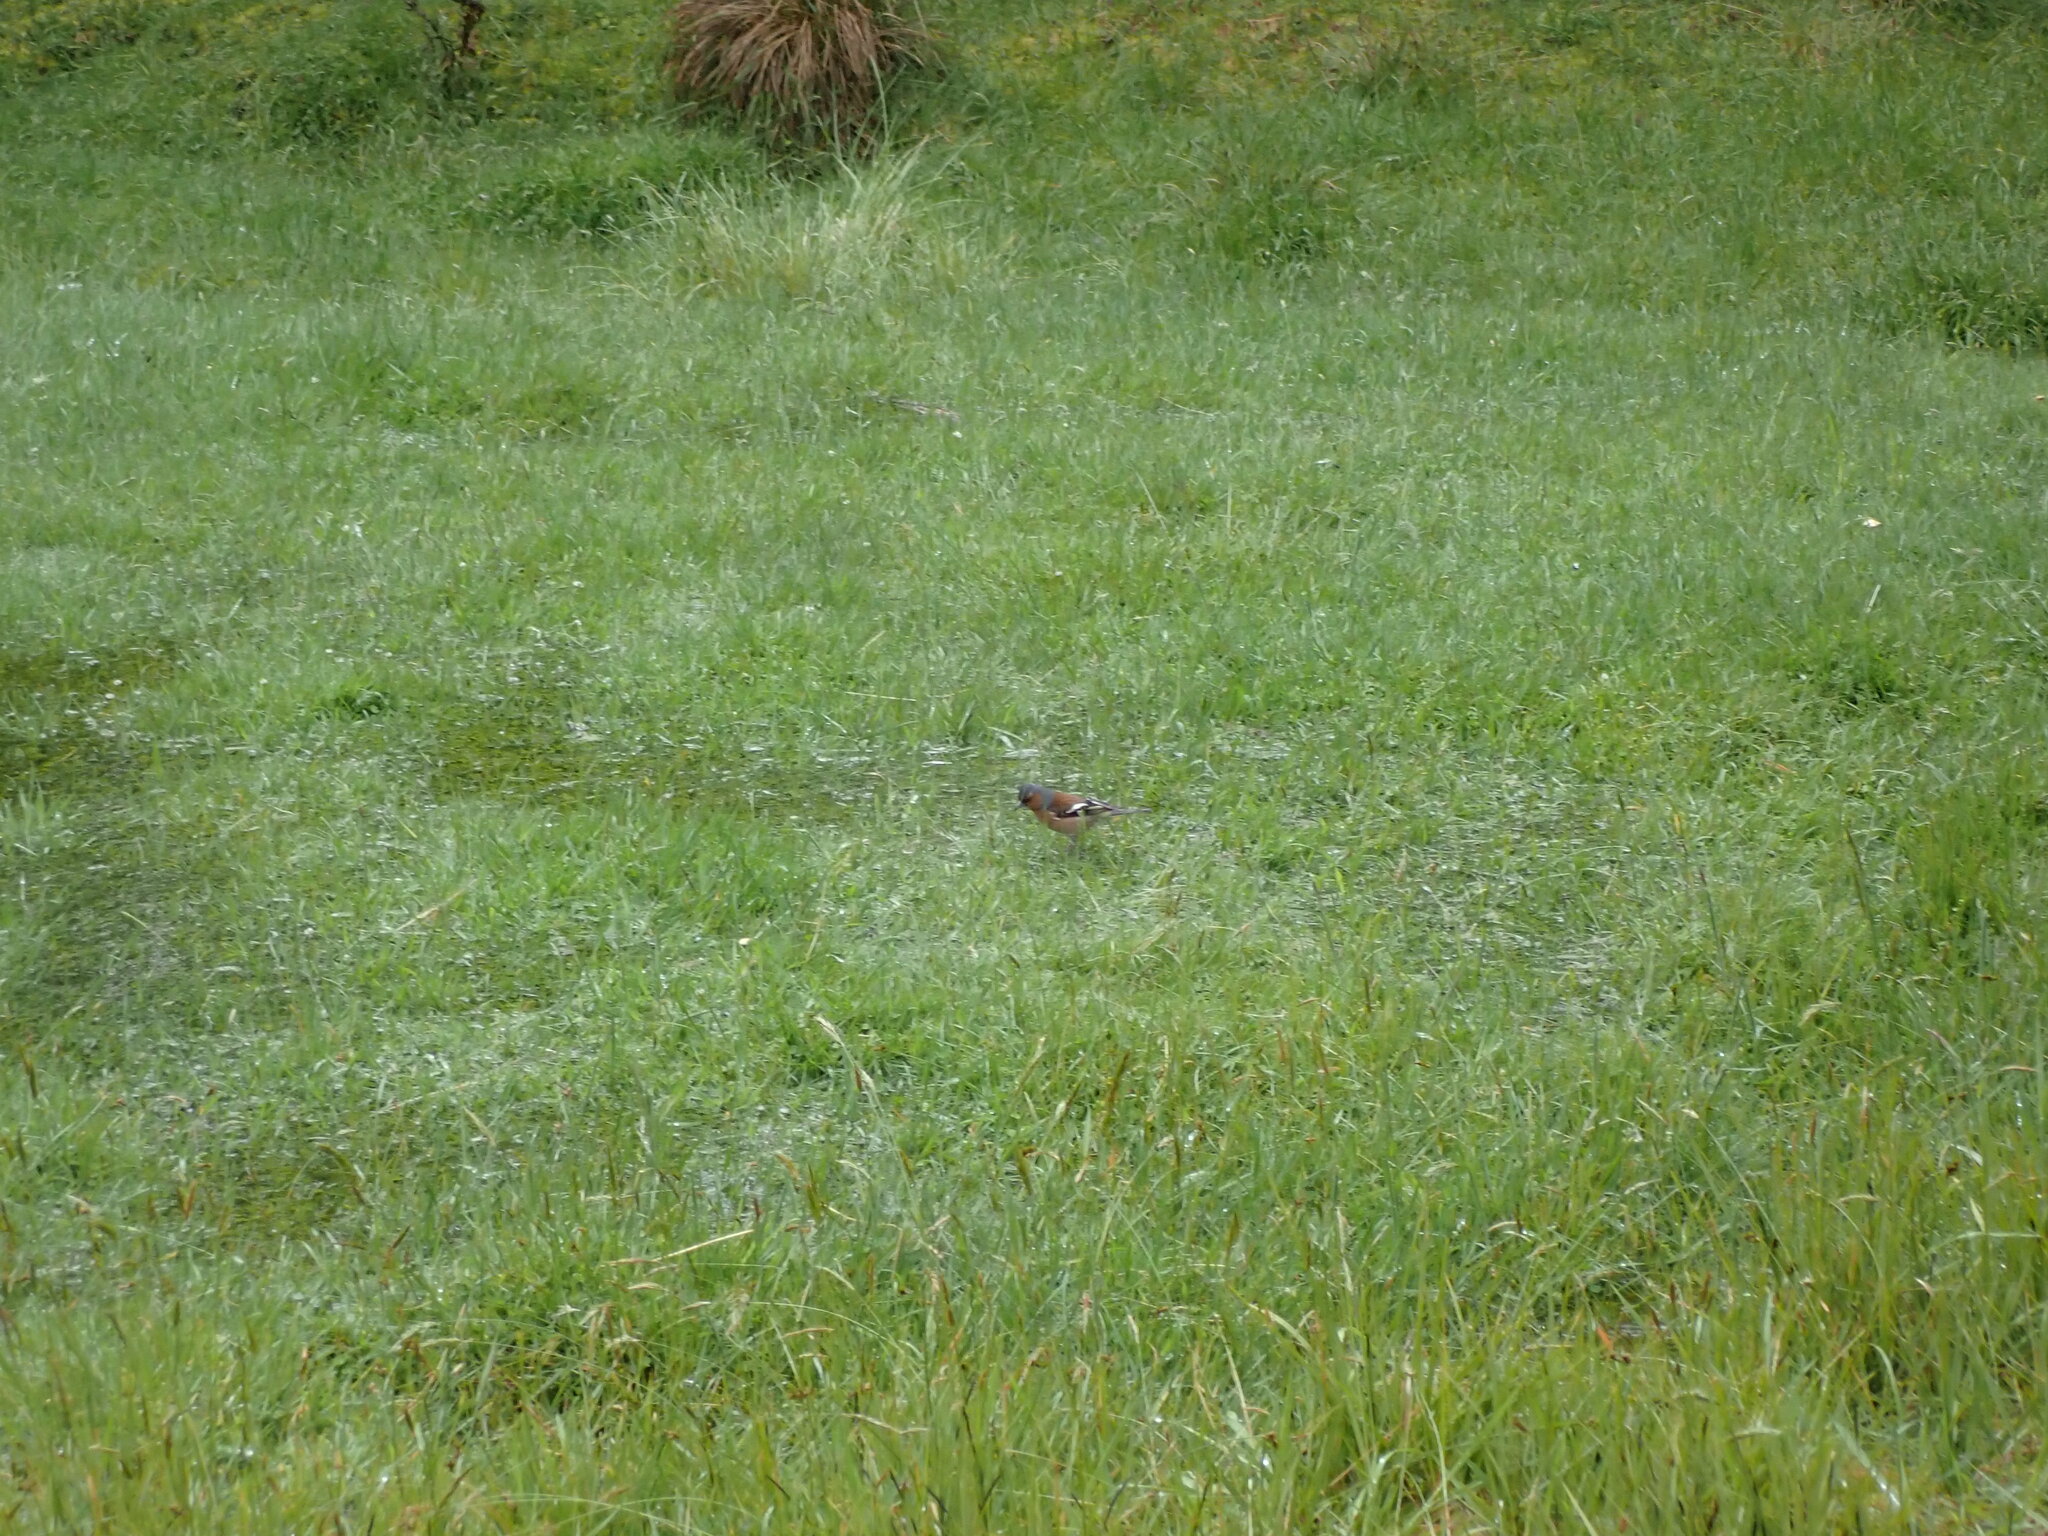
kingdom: Animalia
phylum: Chordata
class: Aves
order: Passeriformes
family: Fringillidae
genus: Fringilla
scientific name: Fringilla coelebs
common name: Common chaffinch
